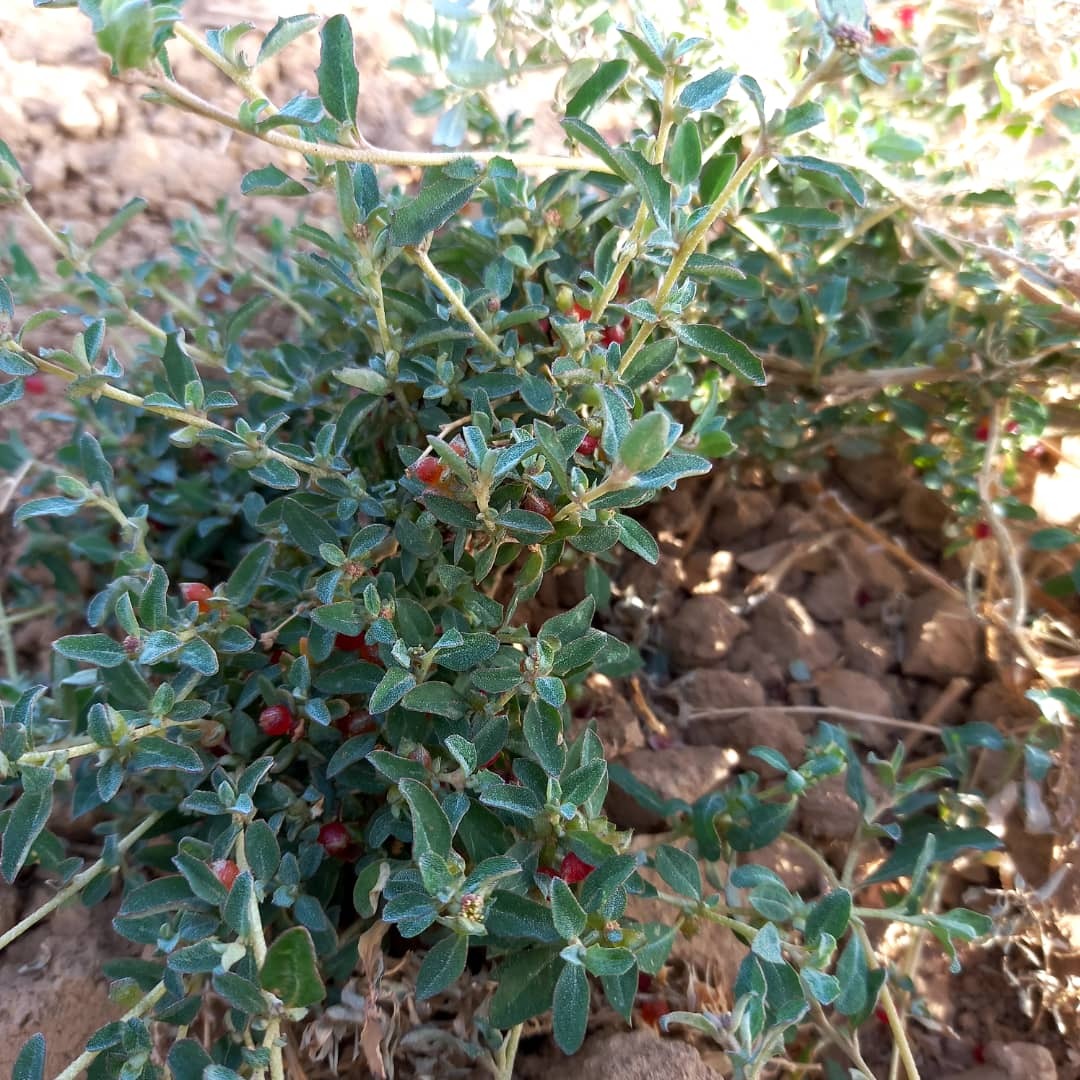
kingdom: Plantae
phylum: Tracheophyta
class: Magnoliopsida
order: Caryophyllales
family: Amaranthaceae
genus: Atriplex
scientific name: Atriplex semibaccata
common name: Australian saltbush
